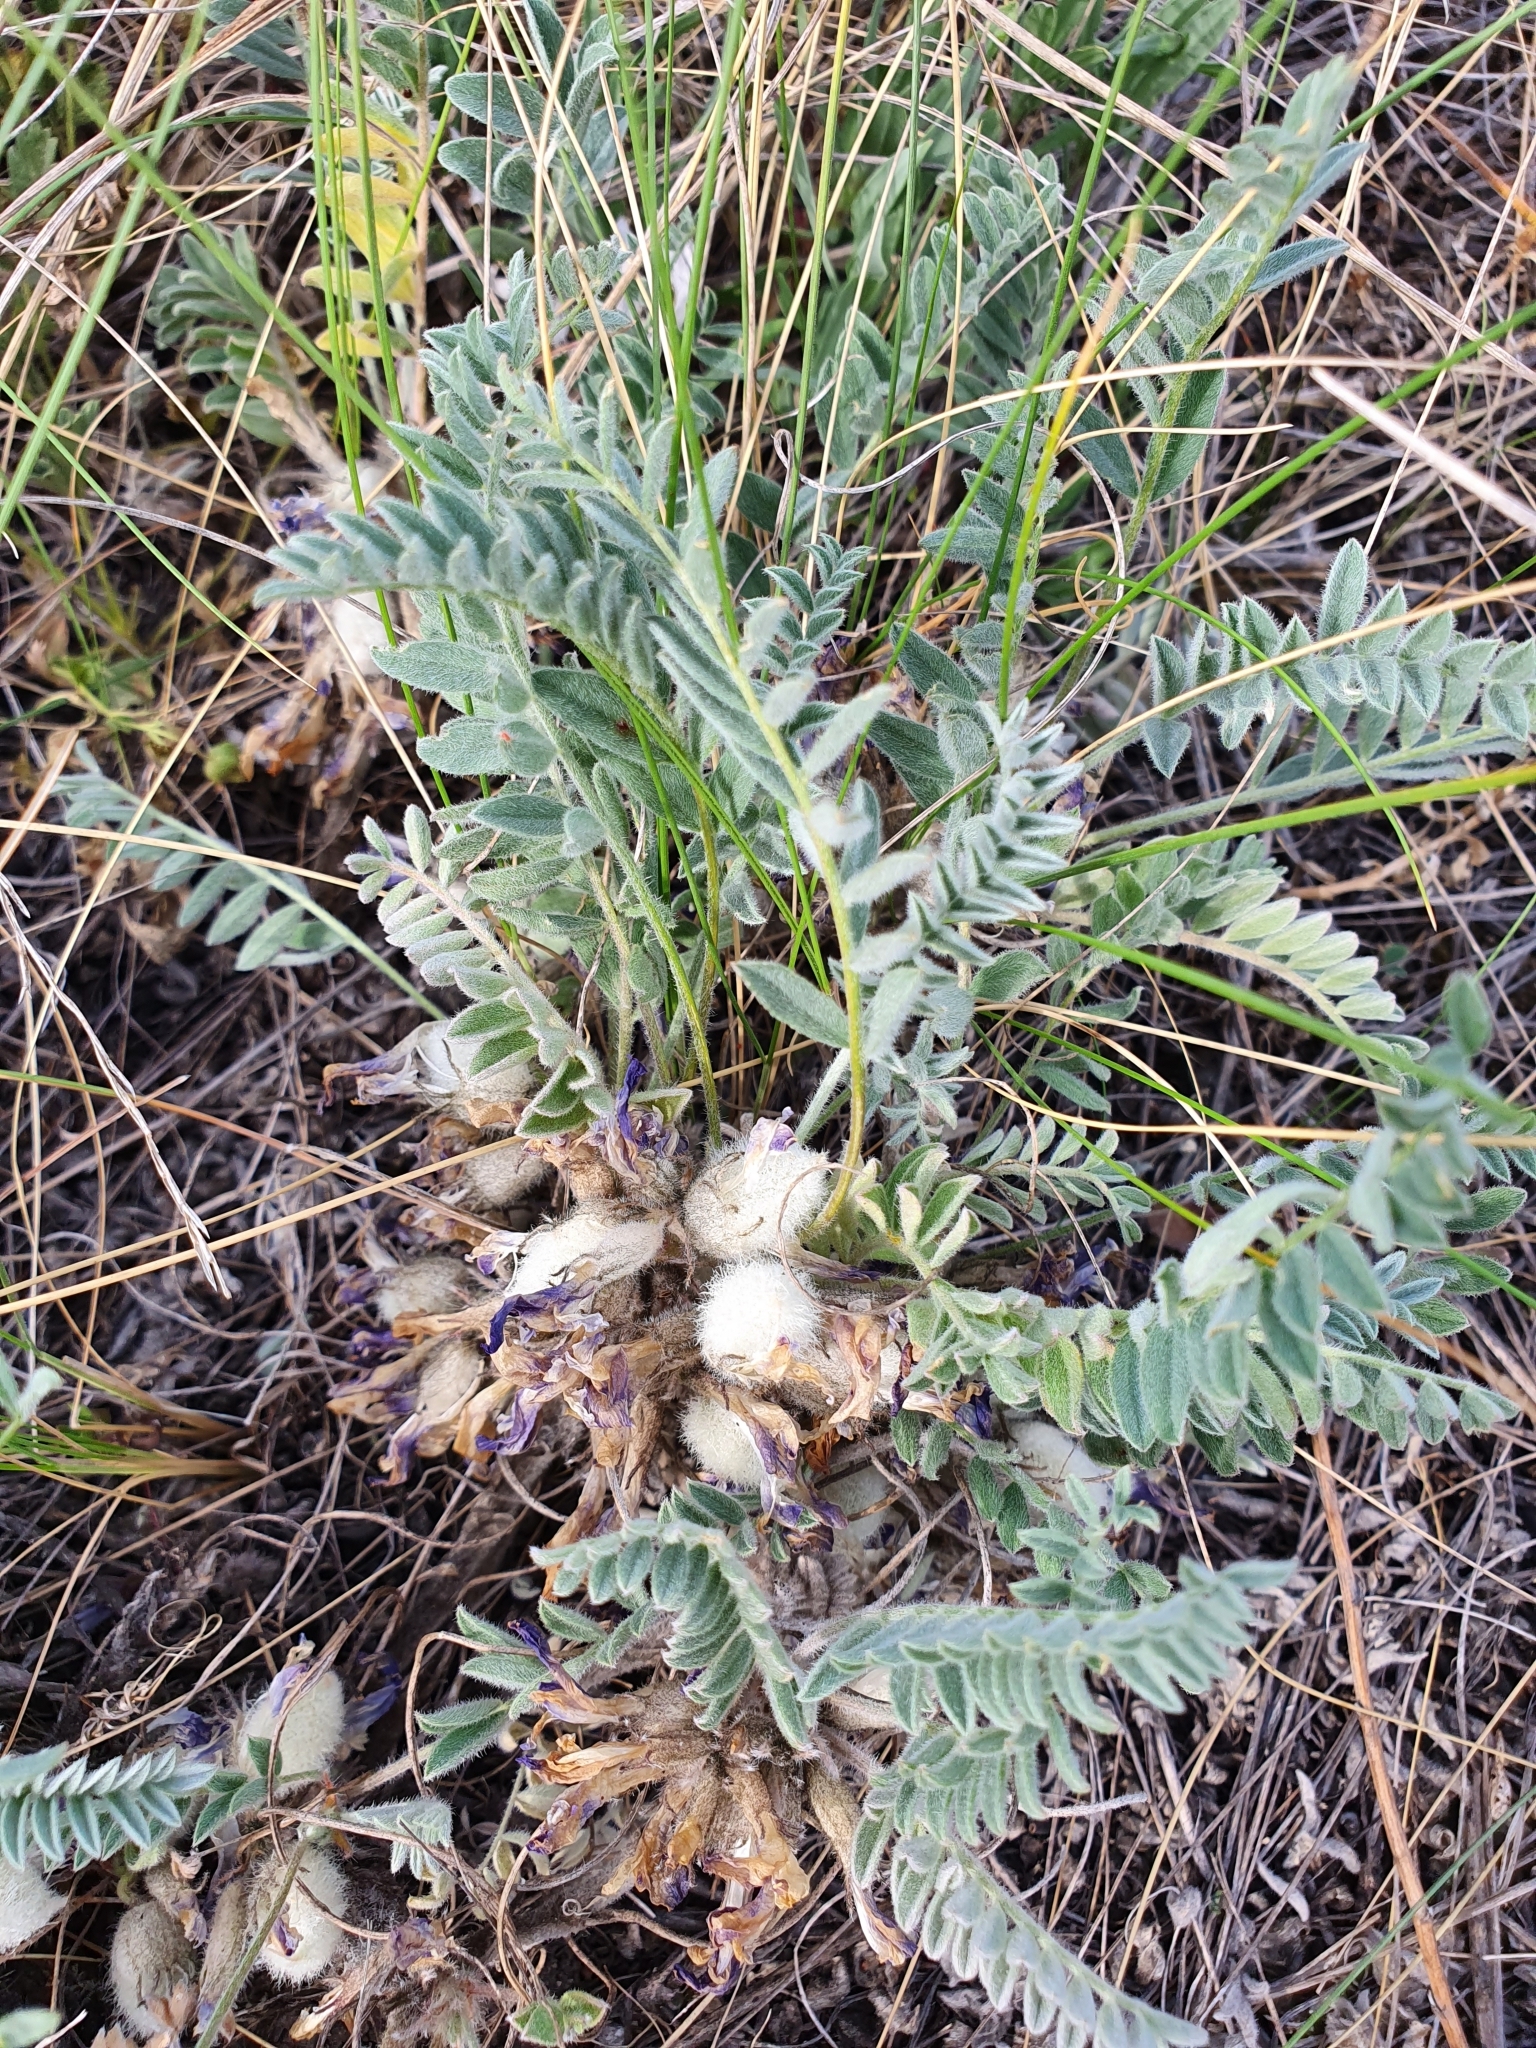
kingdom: Plantae
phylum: Tracheophyta
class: Magnoliopsida
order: Fabales
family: Fabaceae
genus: Astragalus
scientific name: Astragalus testiculatus
